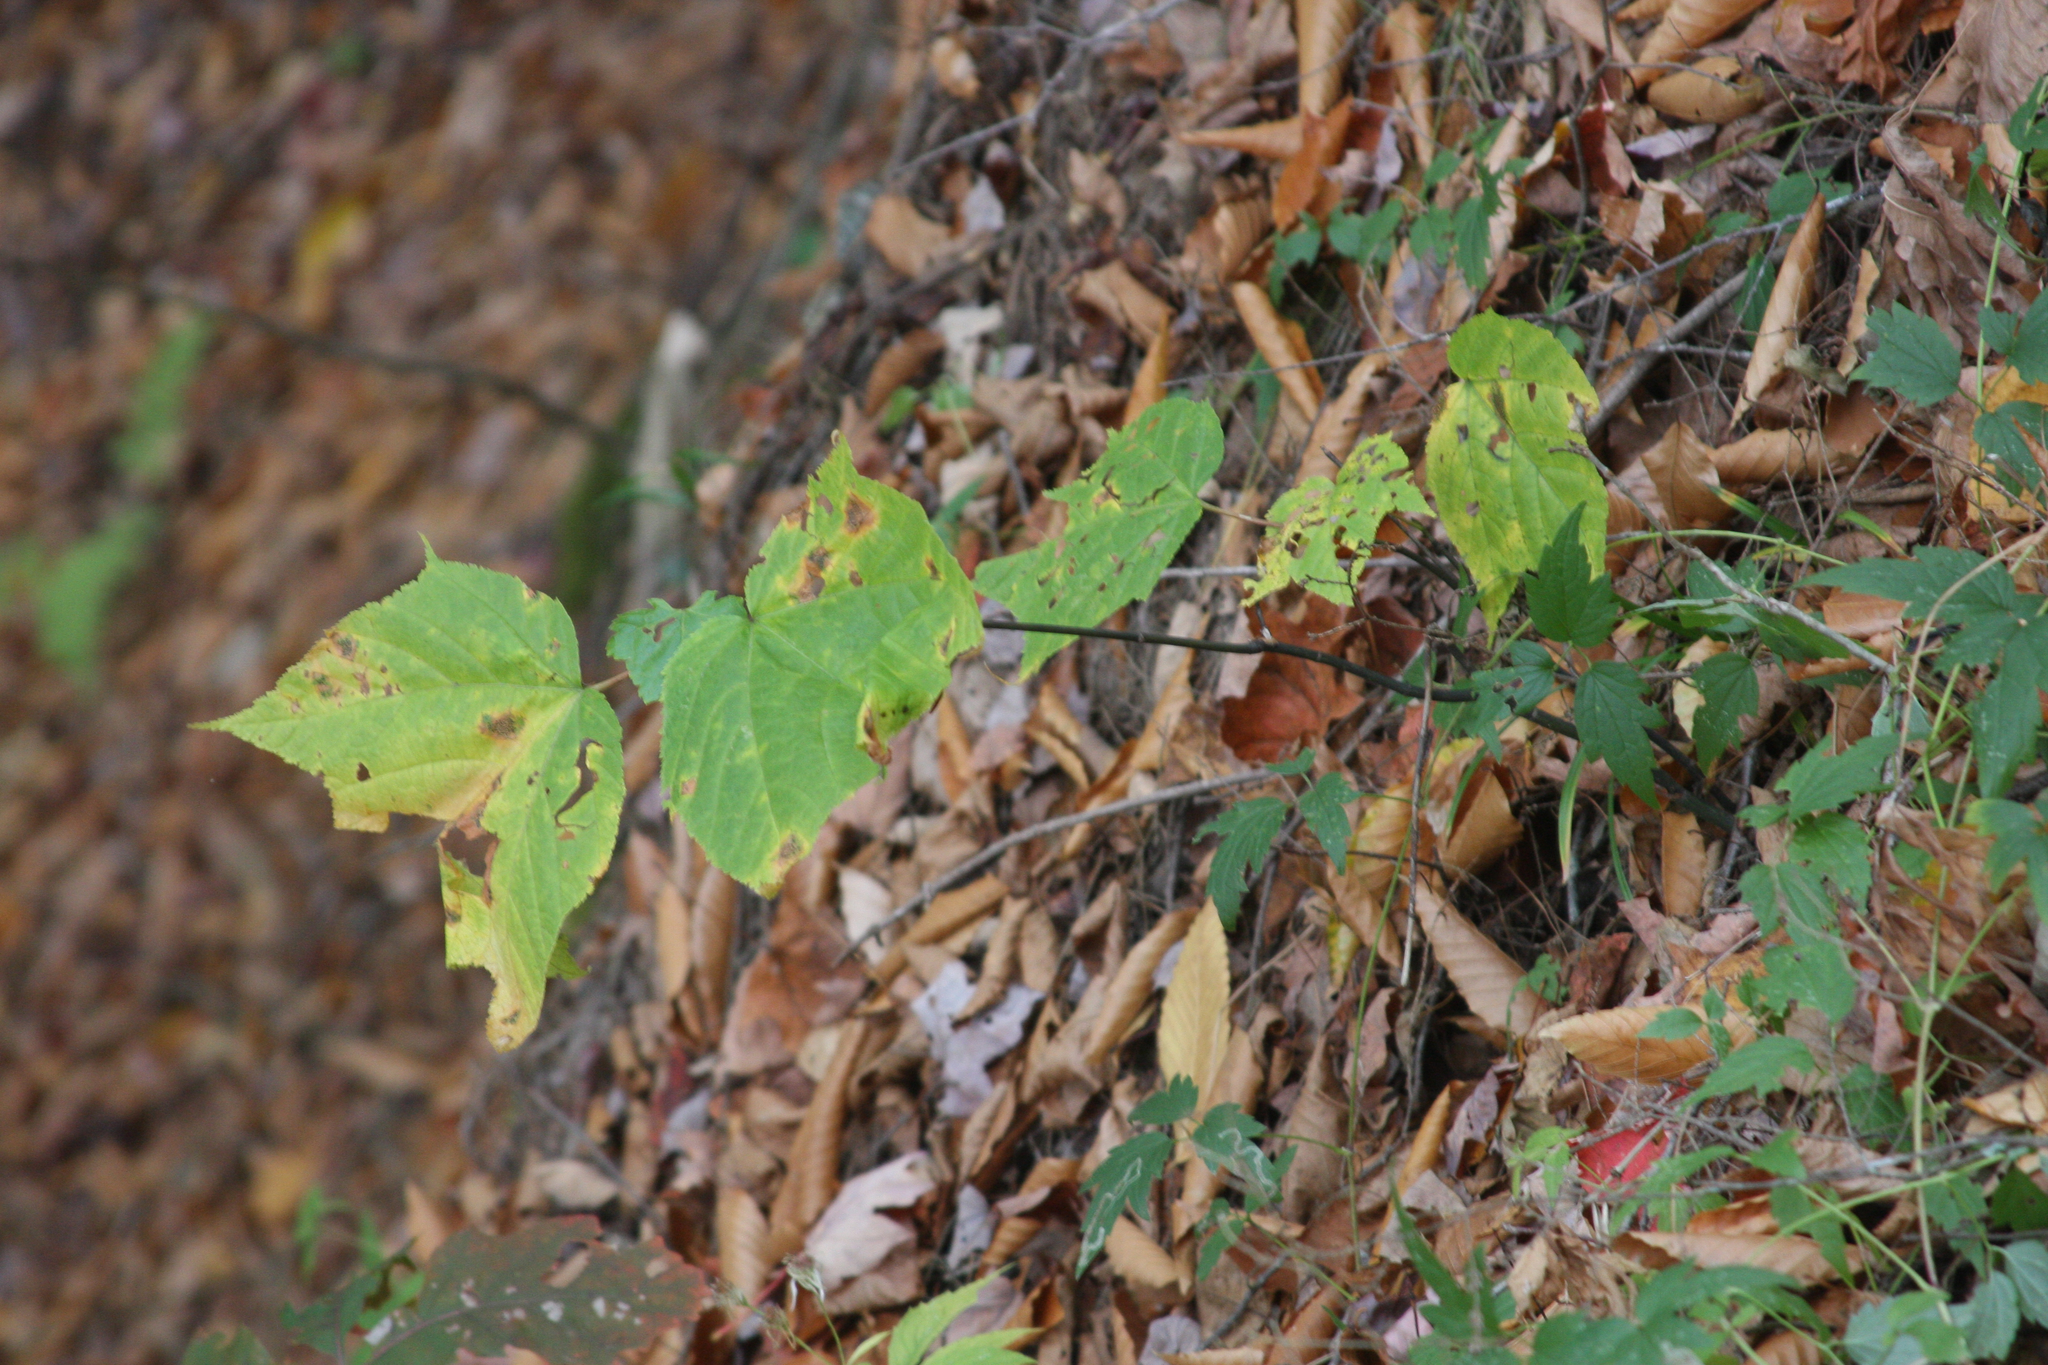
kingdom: Plantae
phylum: Tracheophyta
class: Magnoliopsida
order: Sapindales
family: Sapindaceae
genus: Acer
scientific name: Acer pensylvanicum
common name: Moosewood
